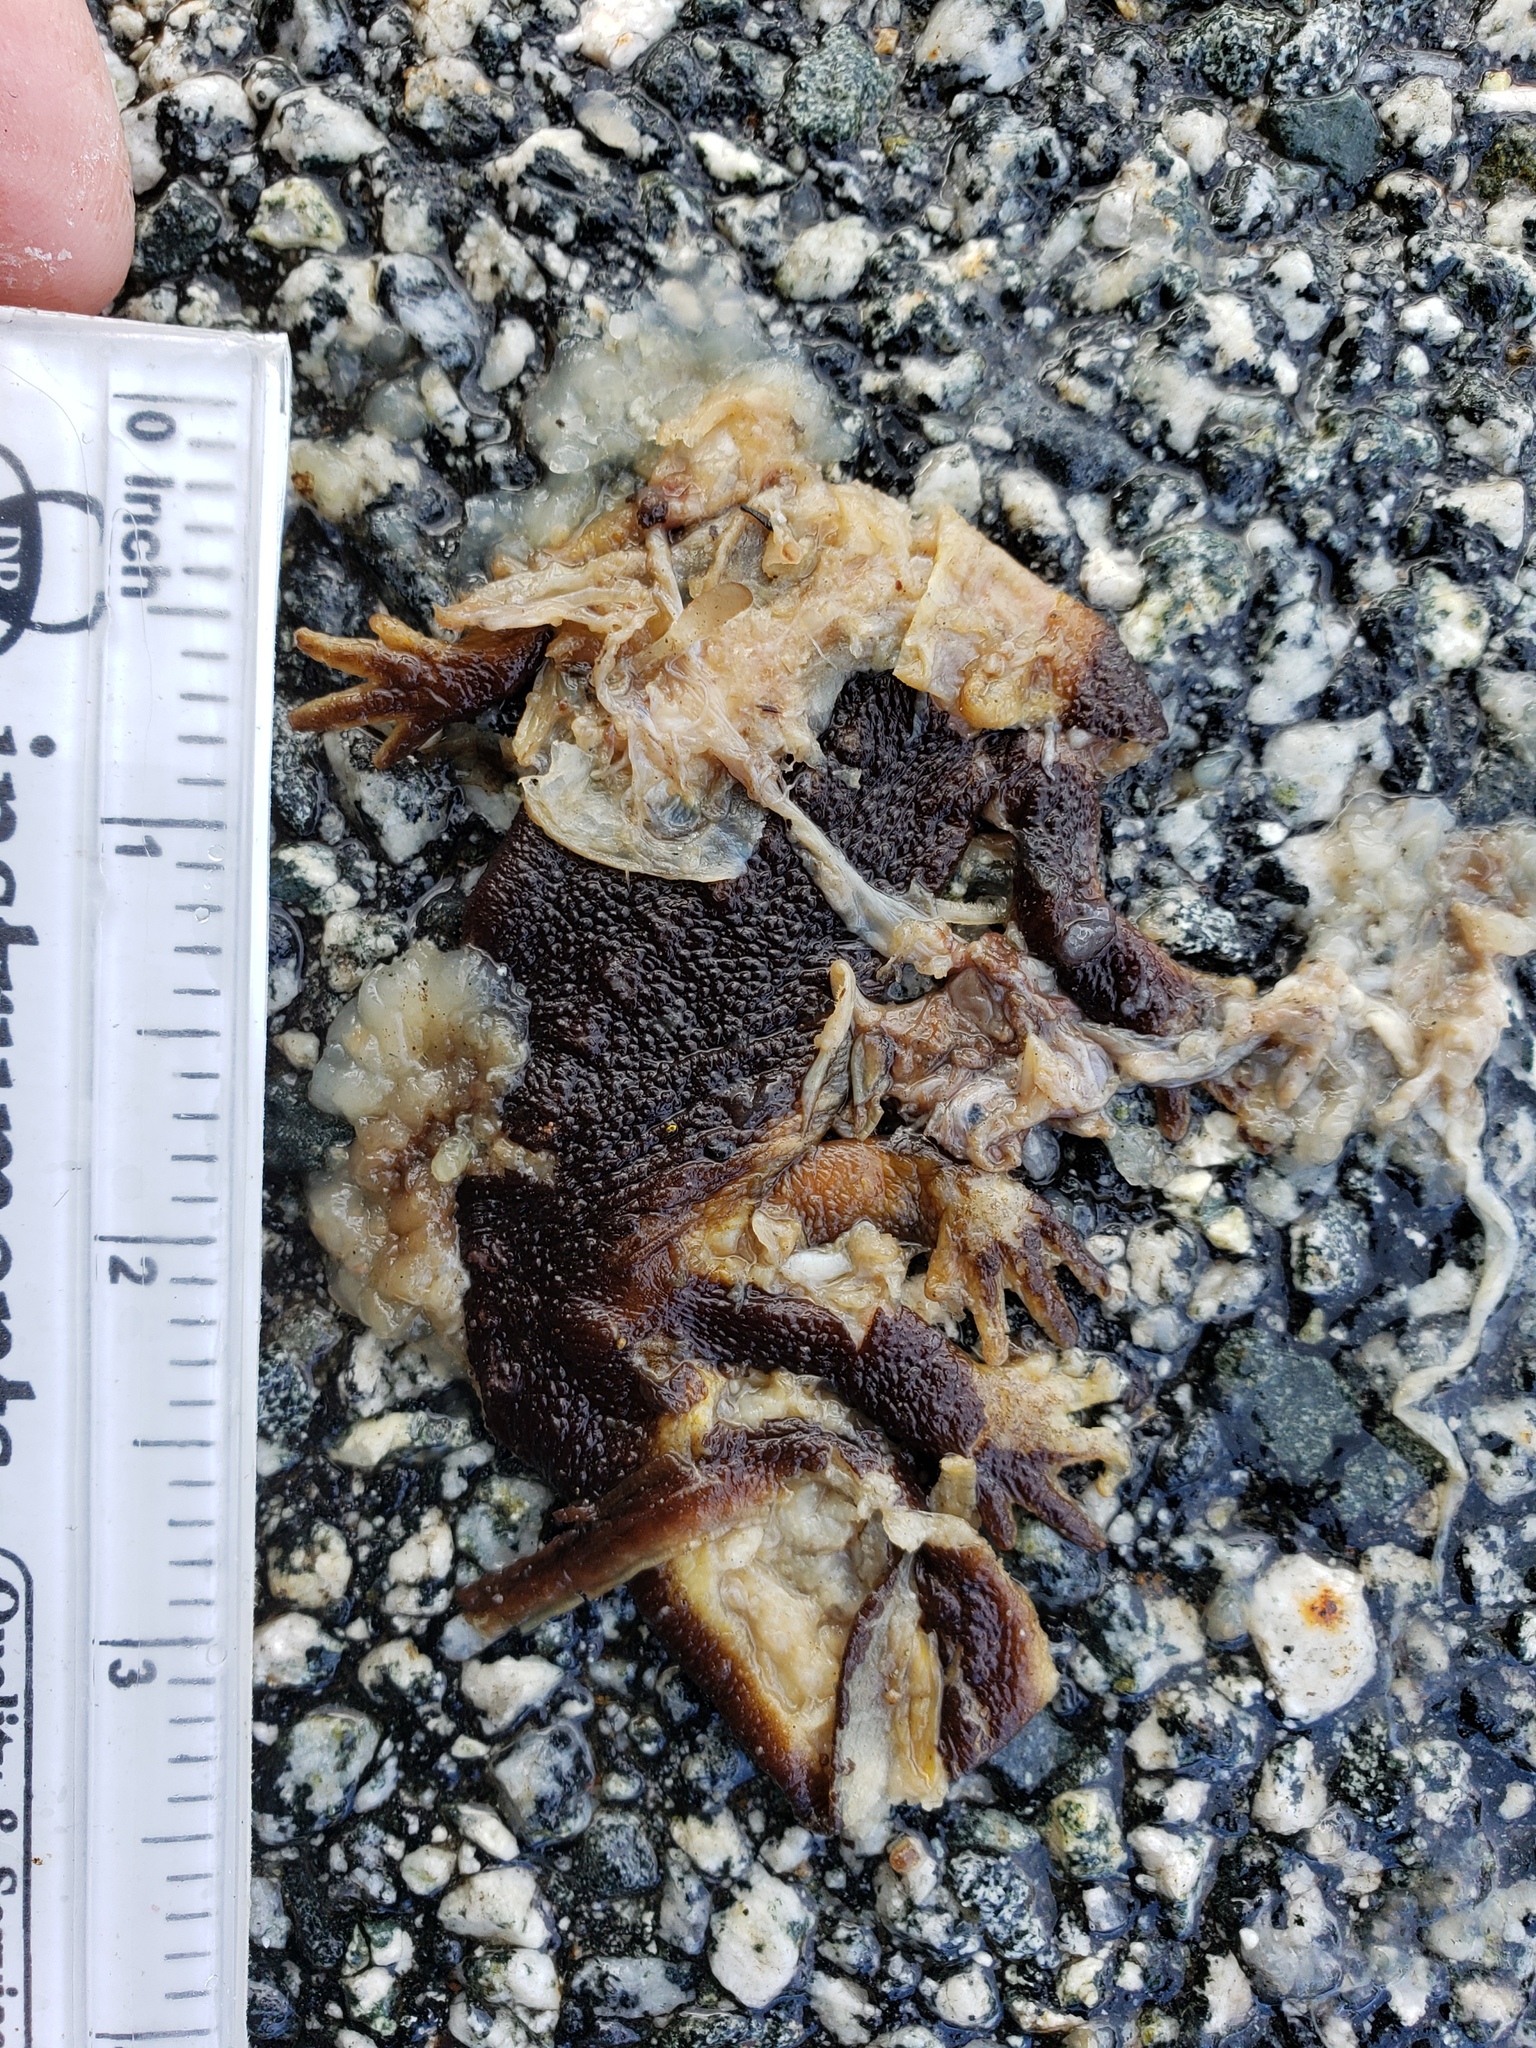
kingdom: Animalia
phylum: Chordata
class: Amphibia
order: Caudata
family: Salamandridae
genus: Taricha
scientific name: Taricha
